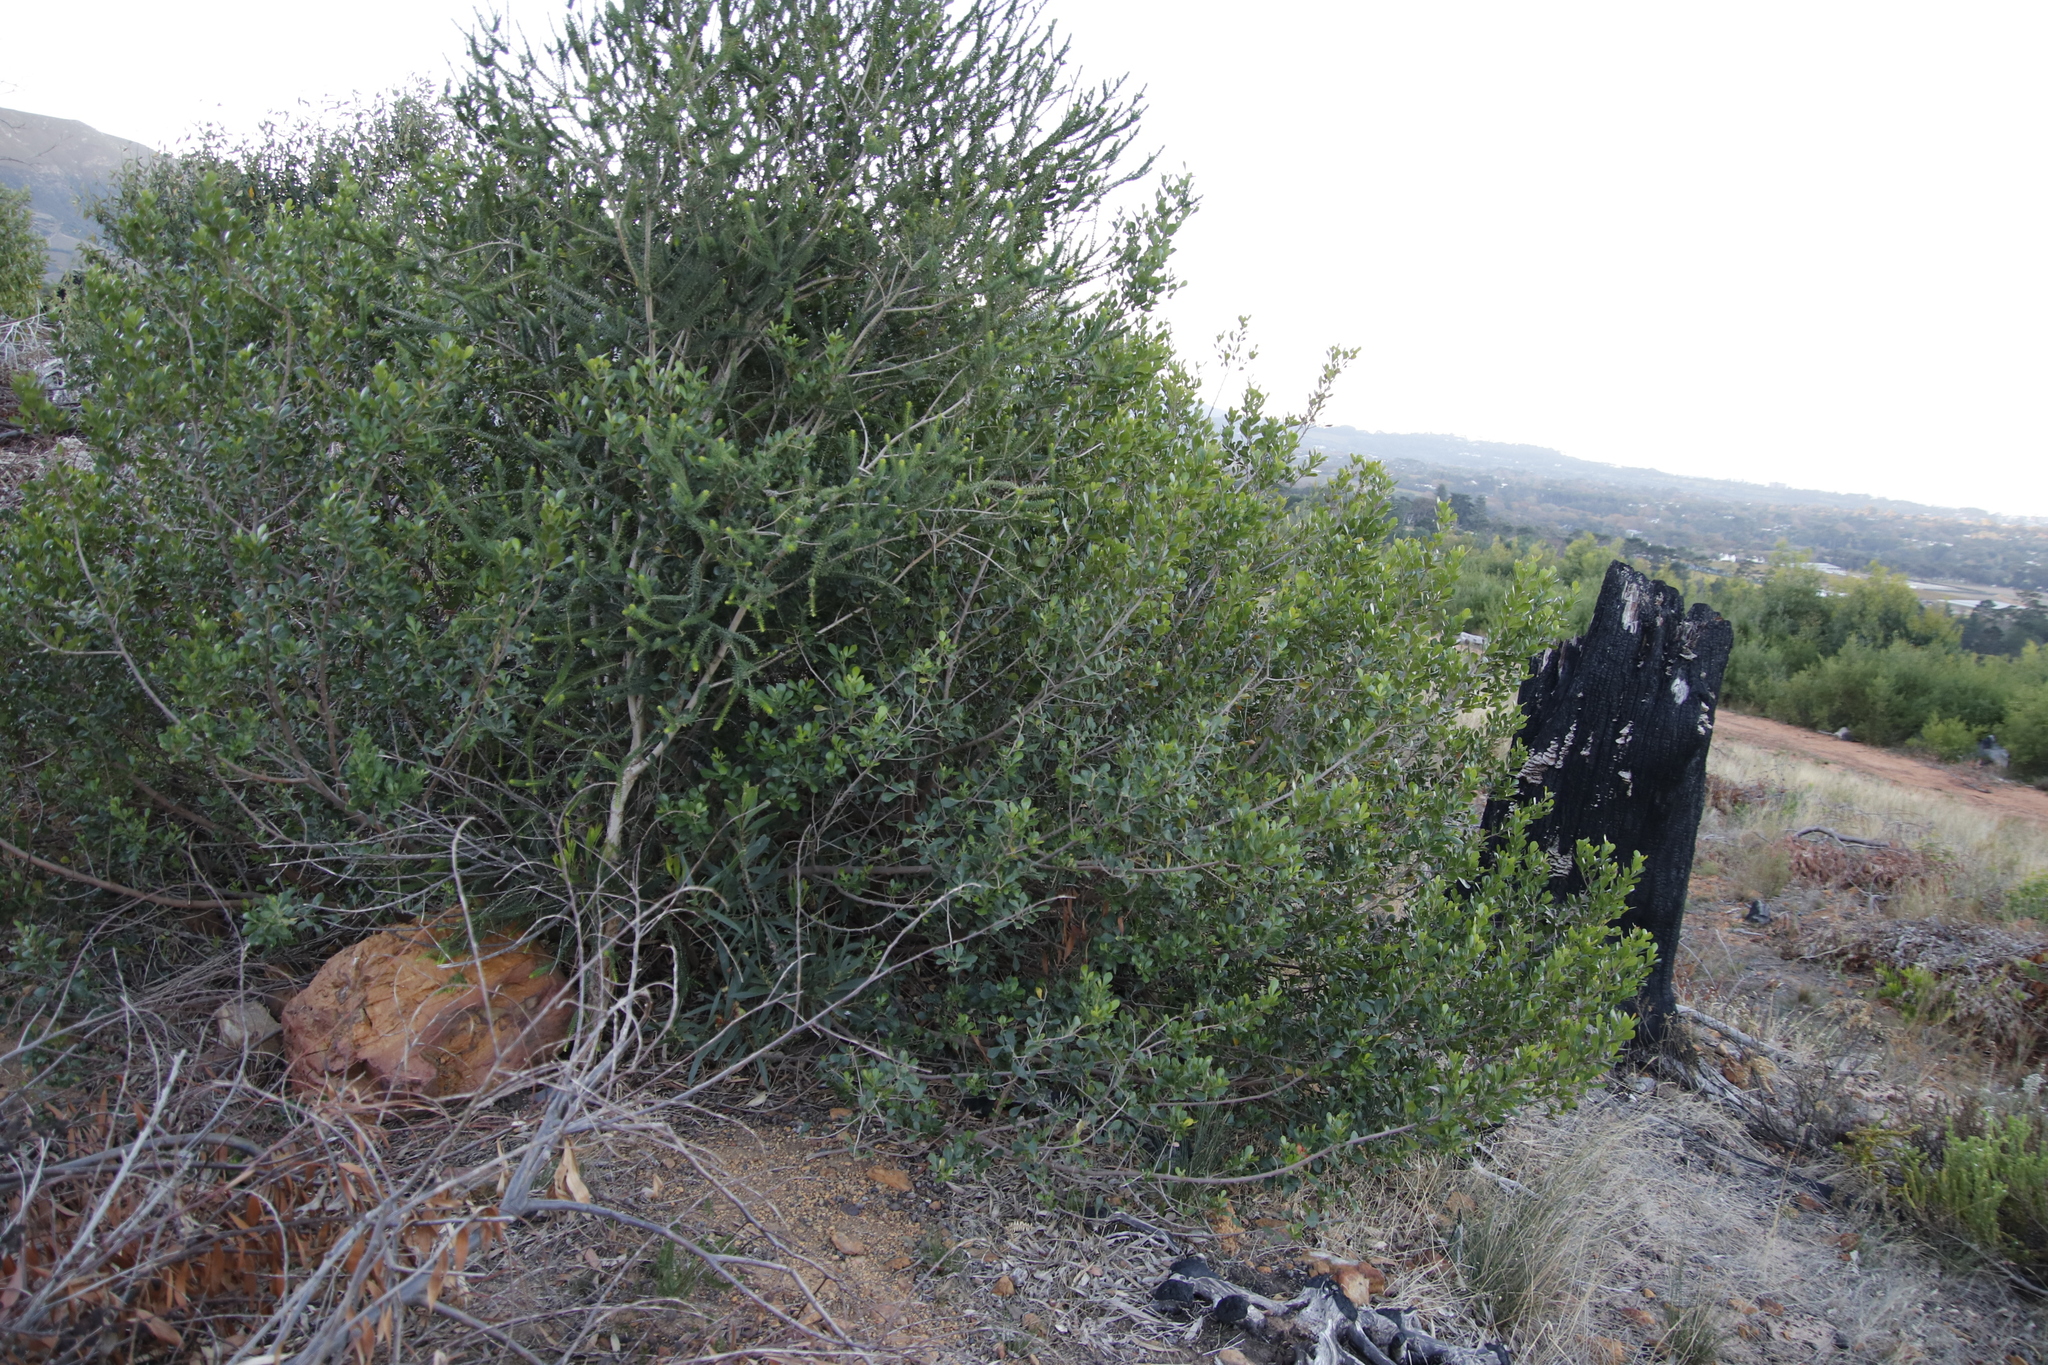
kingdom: Plantae
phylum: Tracheophyta
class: Magnoliopsida
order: Sapindales
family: Anacardiaceae
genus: Searsia
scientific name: Searsia lucida
